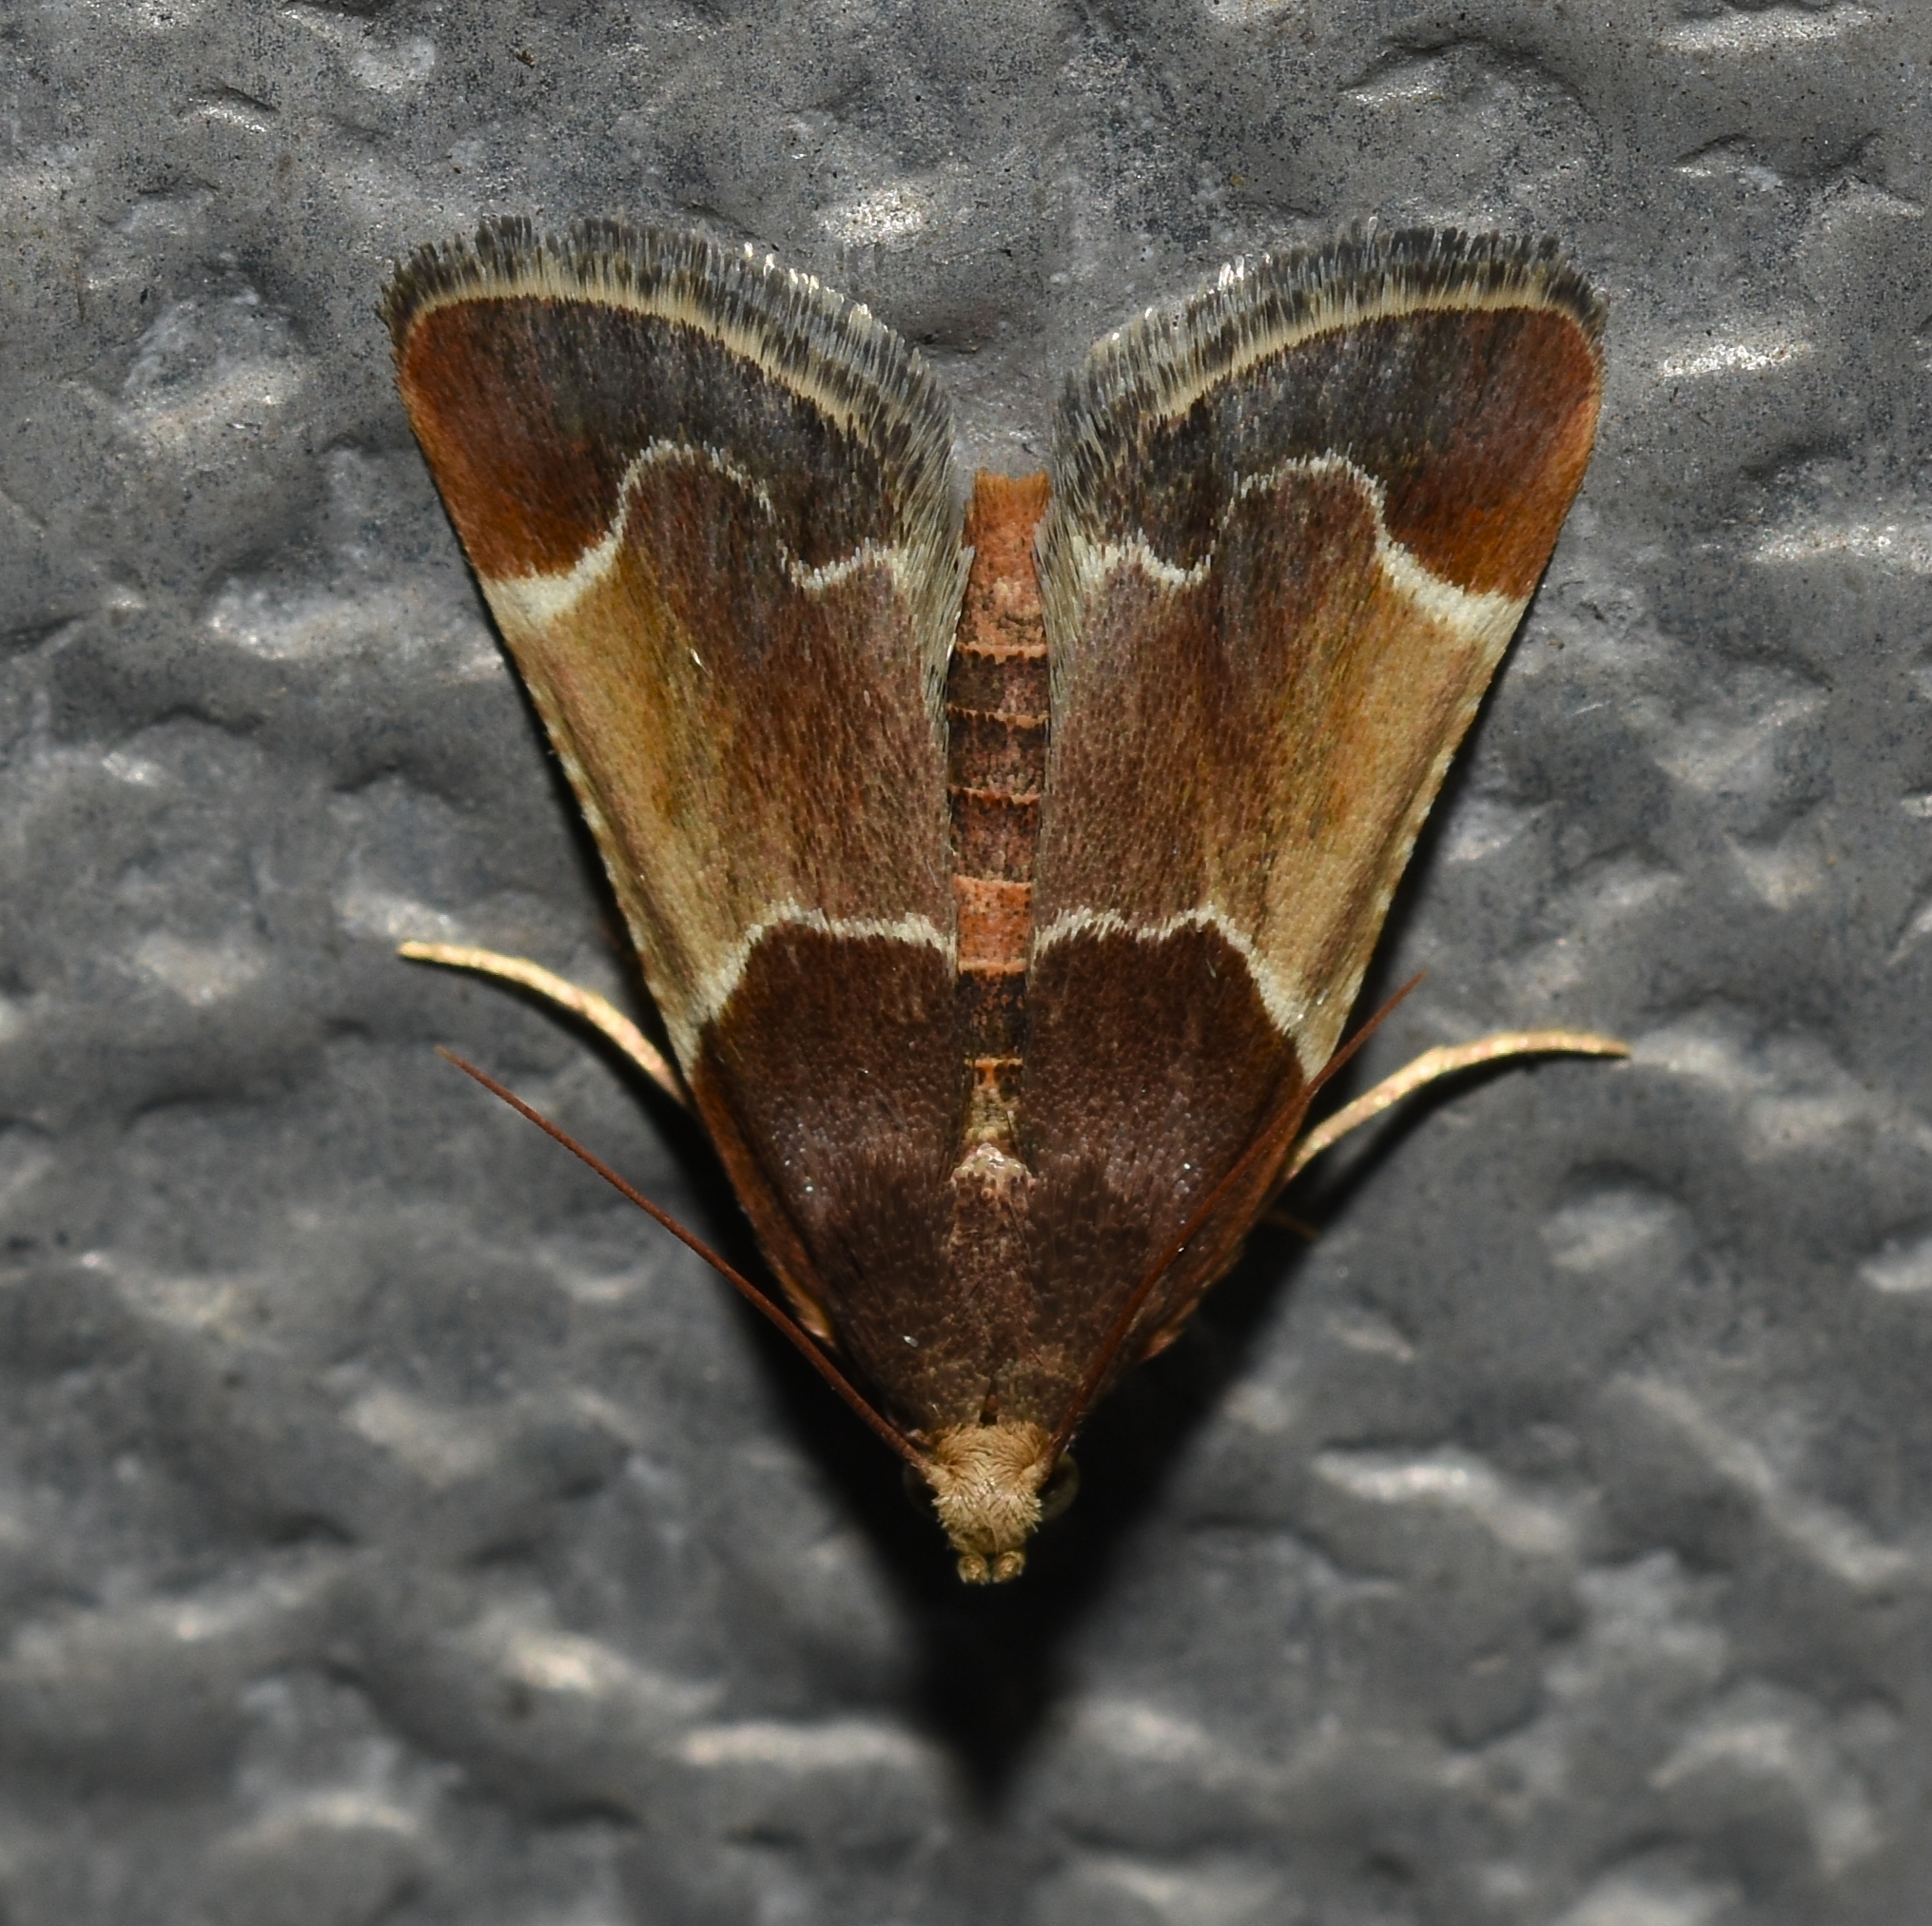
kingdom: Animalia
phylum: Arthropoda
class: Insecta
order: Lepidoptera
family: Pyralidae
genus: Pyralis
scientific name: Pyralis farinalis
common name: Meal moth
